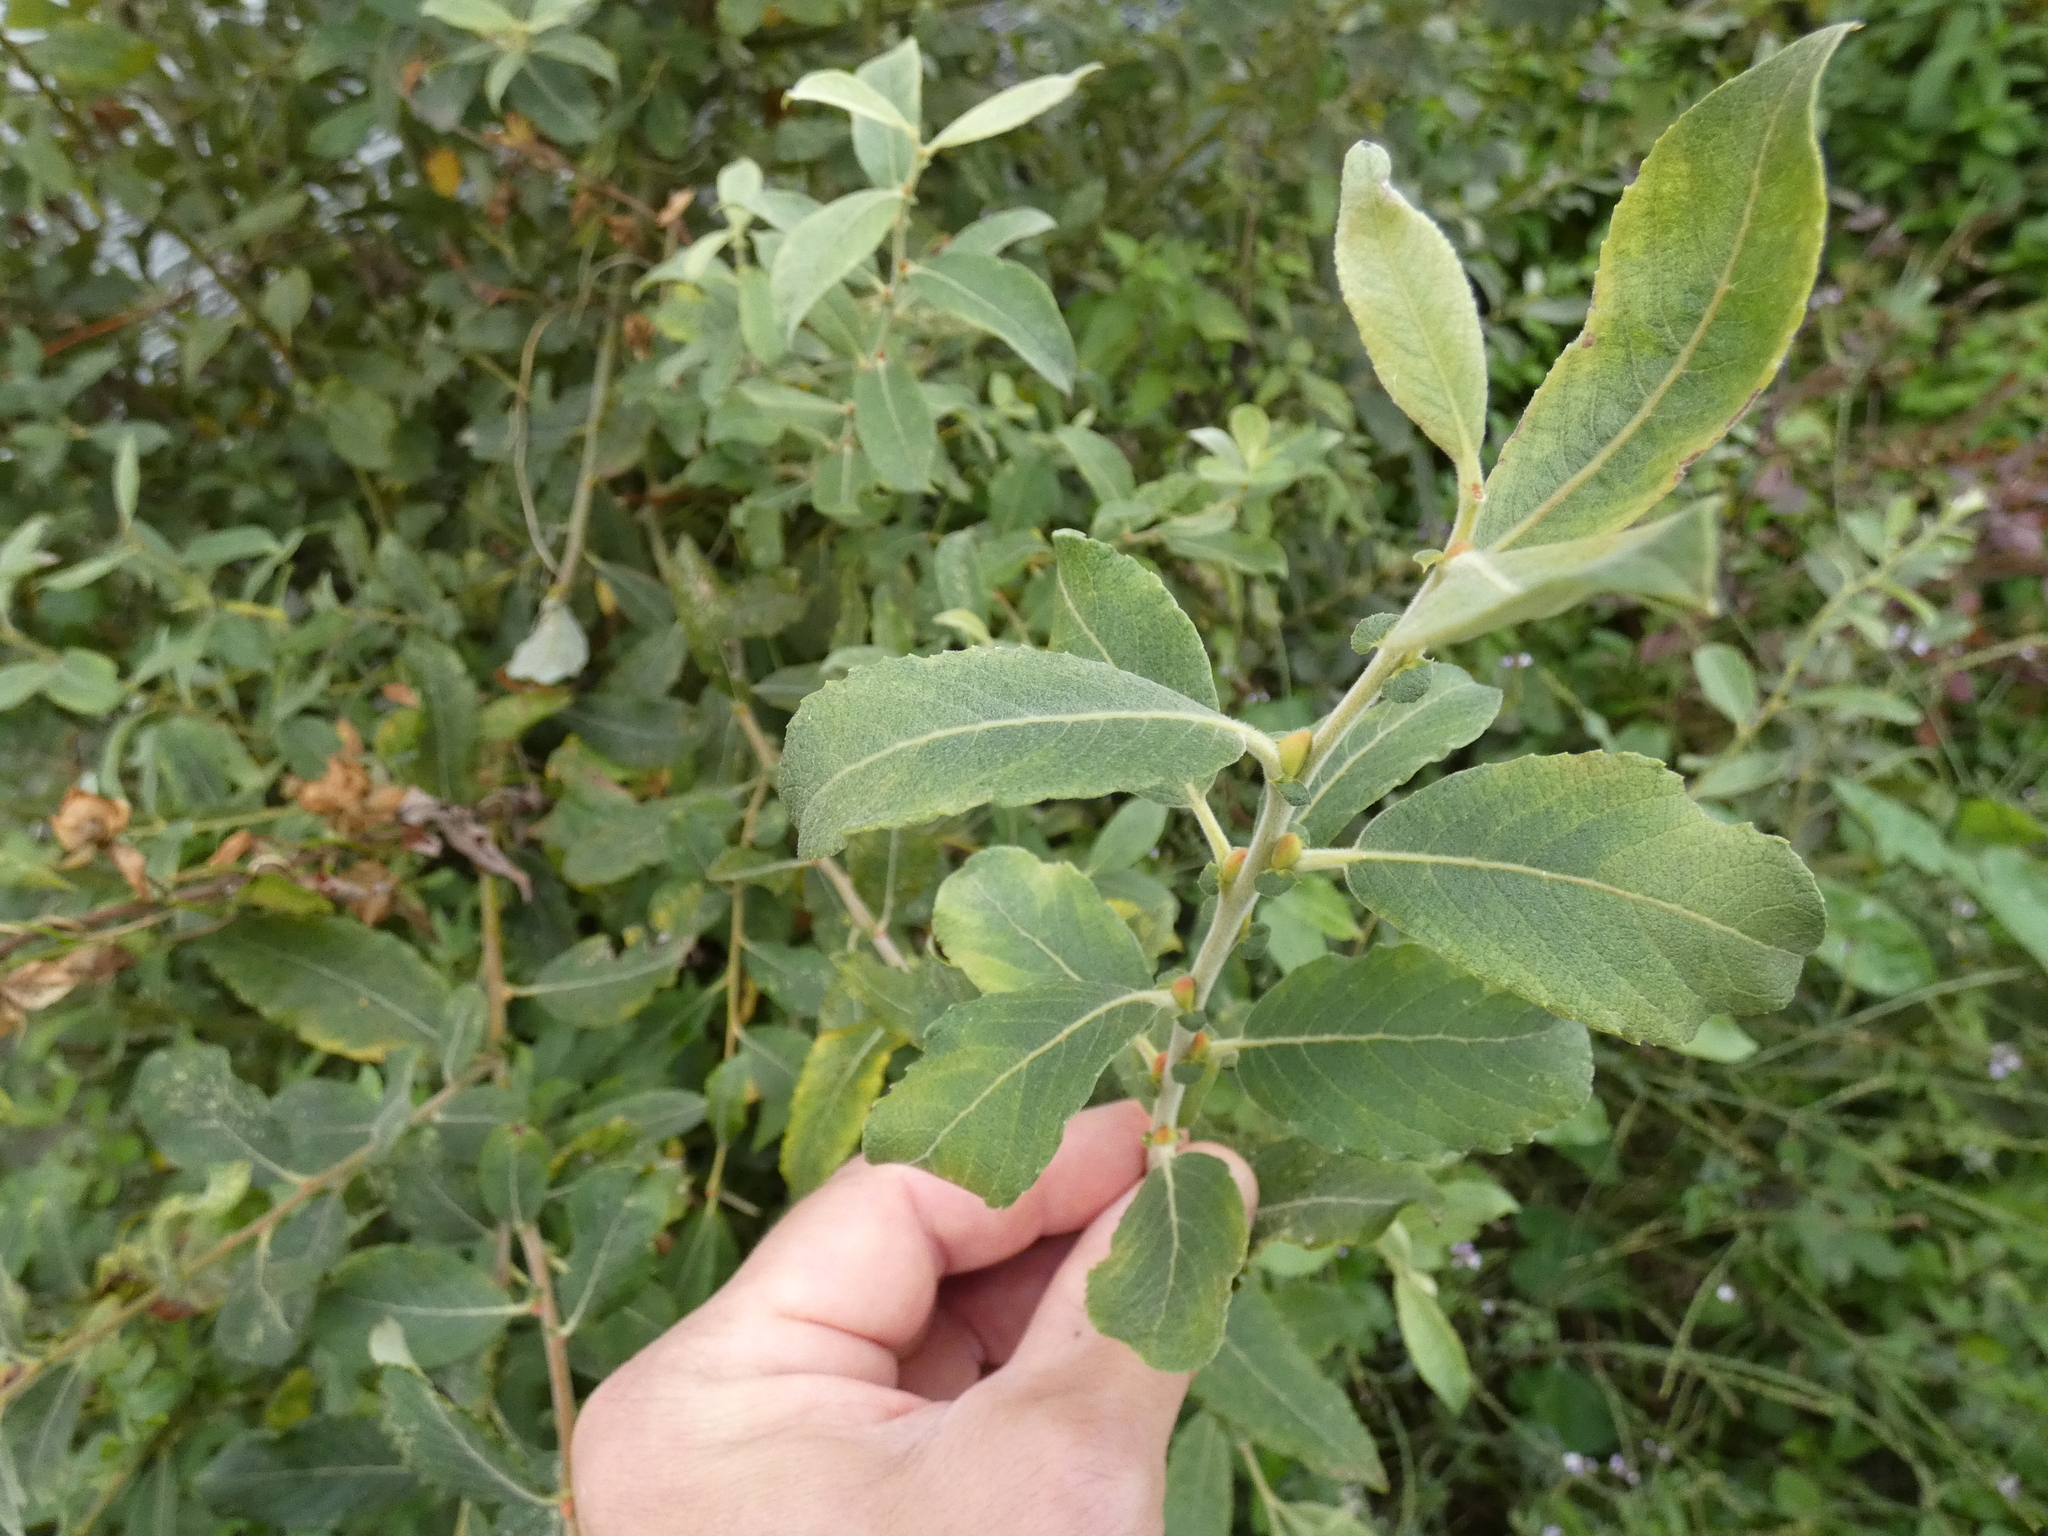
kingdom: Plantae
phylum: Tracheophyta
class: Magnoliopsida
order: Malpighiales
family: Salicaceae
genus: Salix
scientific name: Salix cinerea
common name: Common sallow
